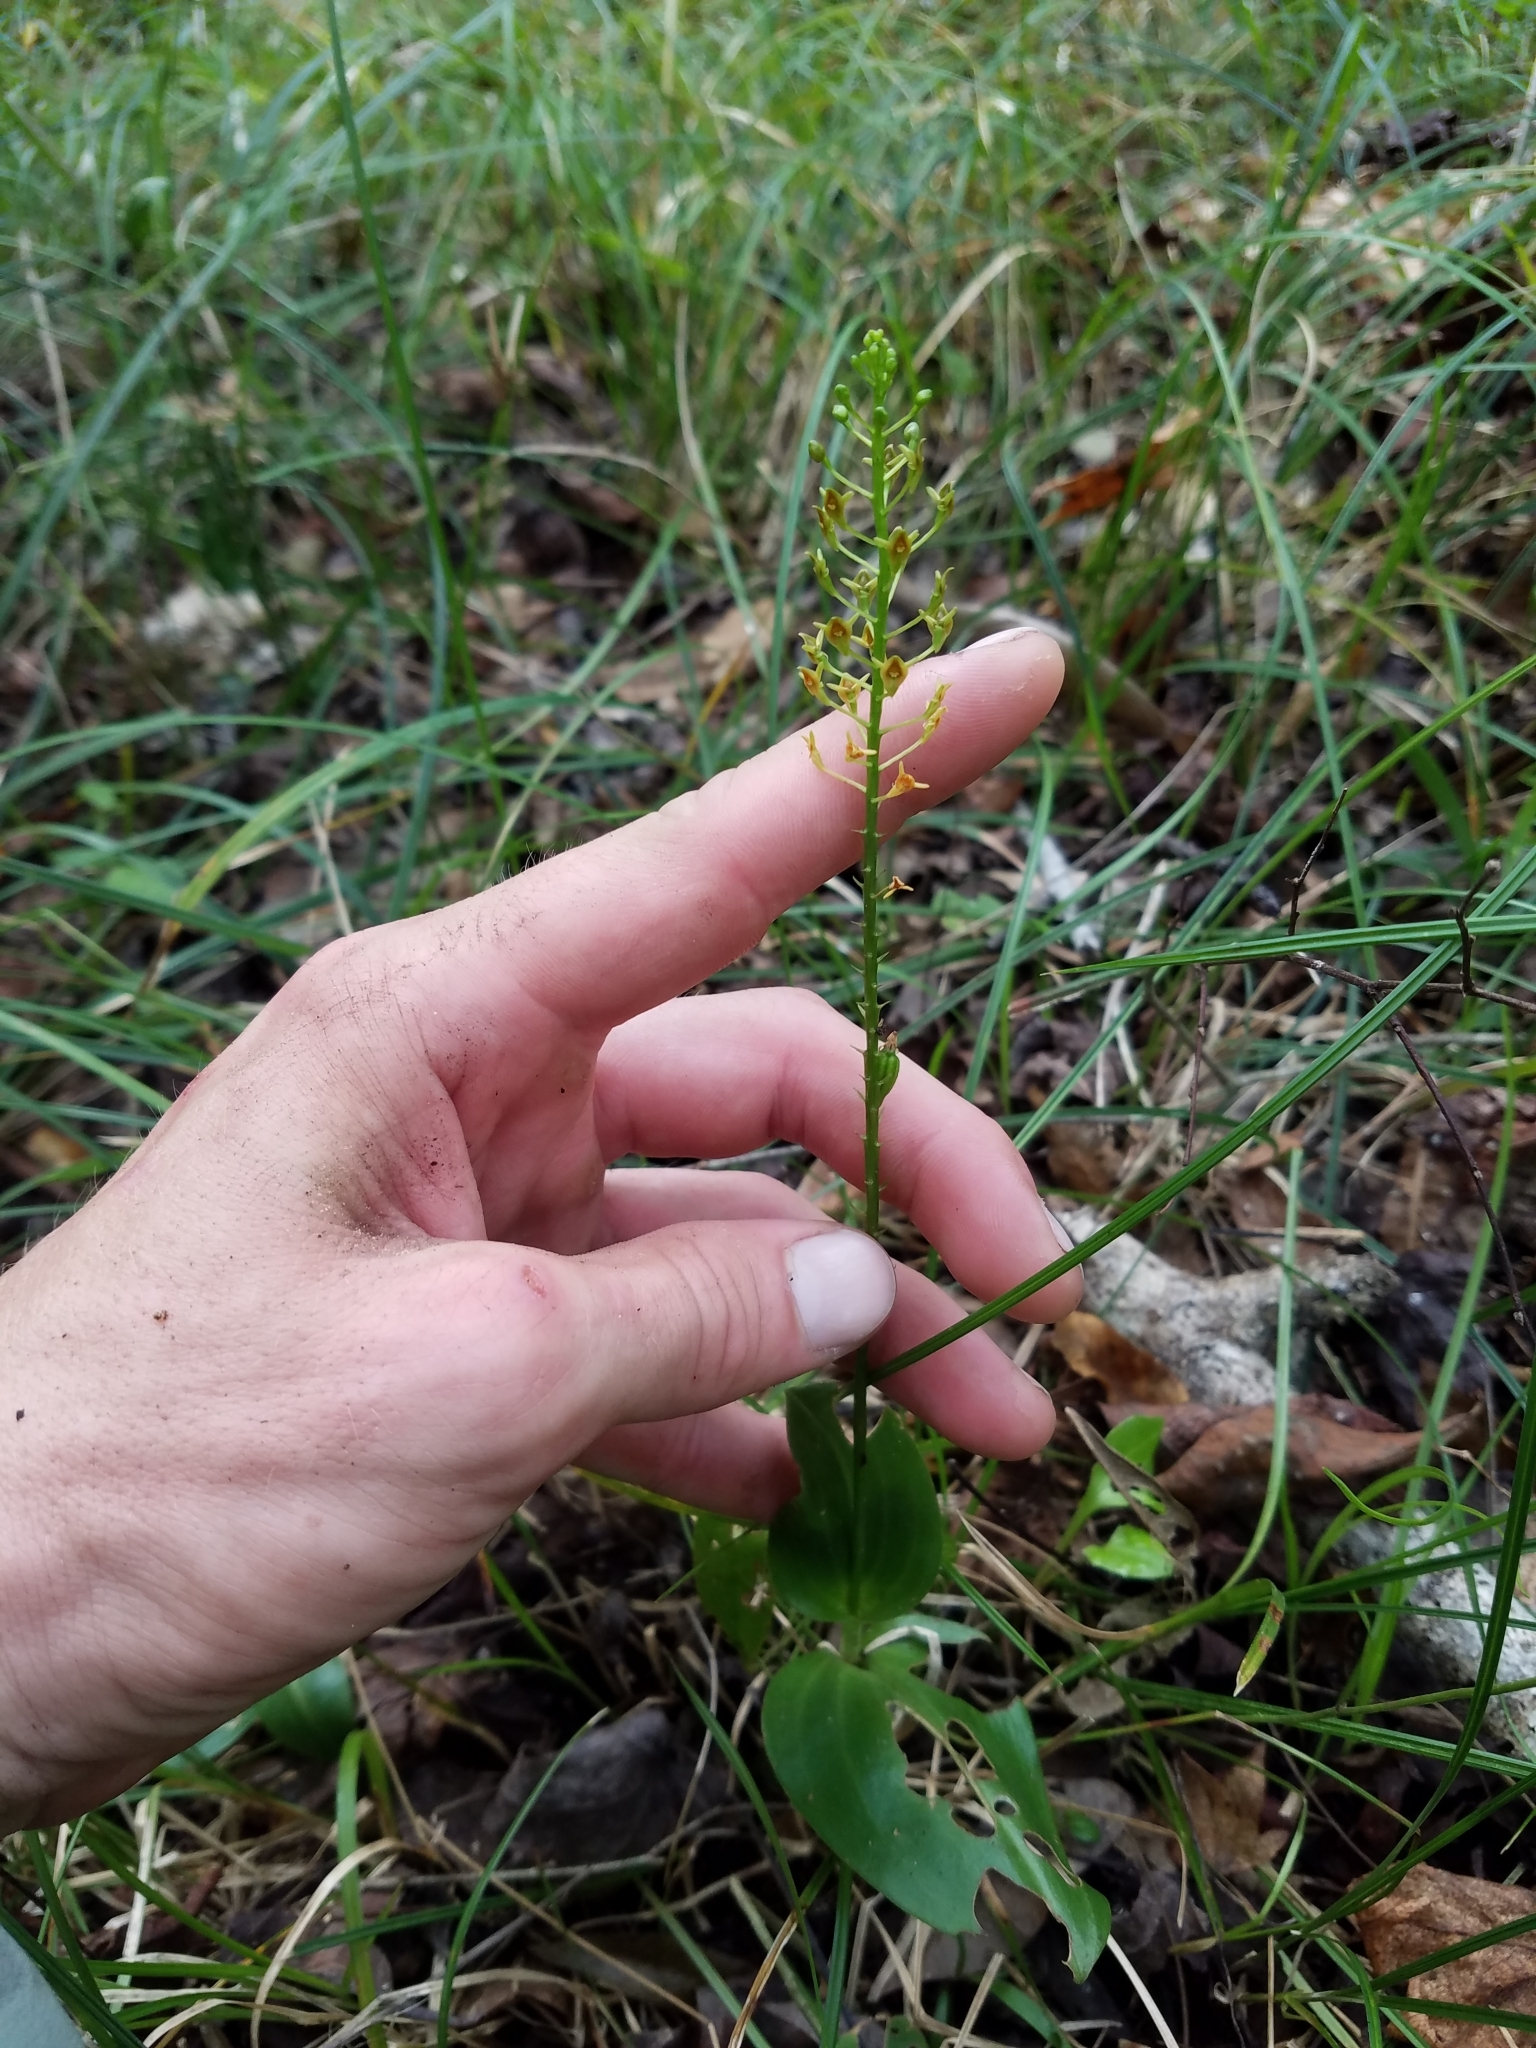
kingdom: Plantae
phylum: Tracheophyta
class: Liliopsida
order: Asparagales
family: Orchidaceae
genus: Malaxis
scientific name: Malaxis spicata
